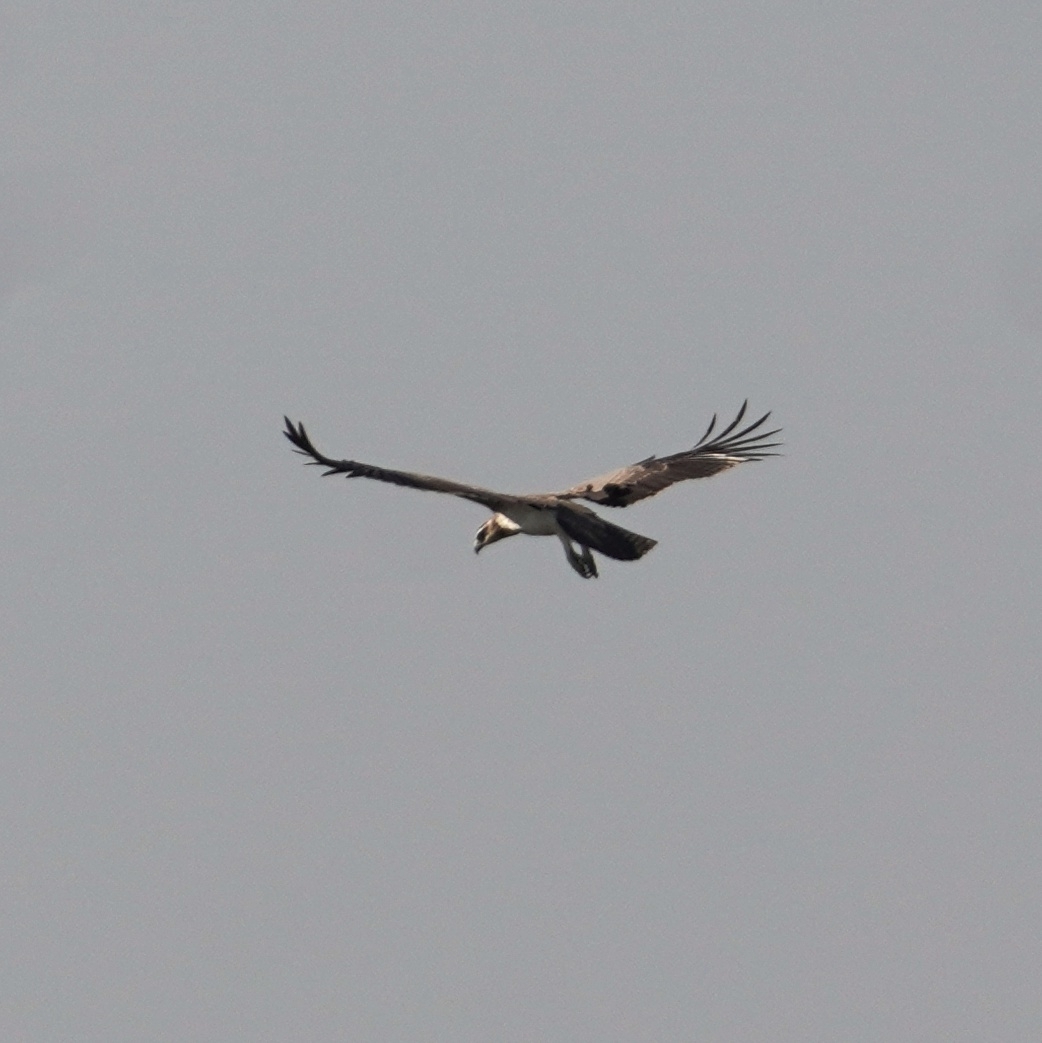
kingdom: Animalia
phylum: Chordata
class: Aves
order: Accipitriformes
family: Pandionidae
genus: Pandion
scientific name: Pandion haliaetus
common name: Osprey
